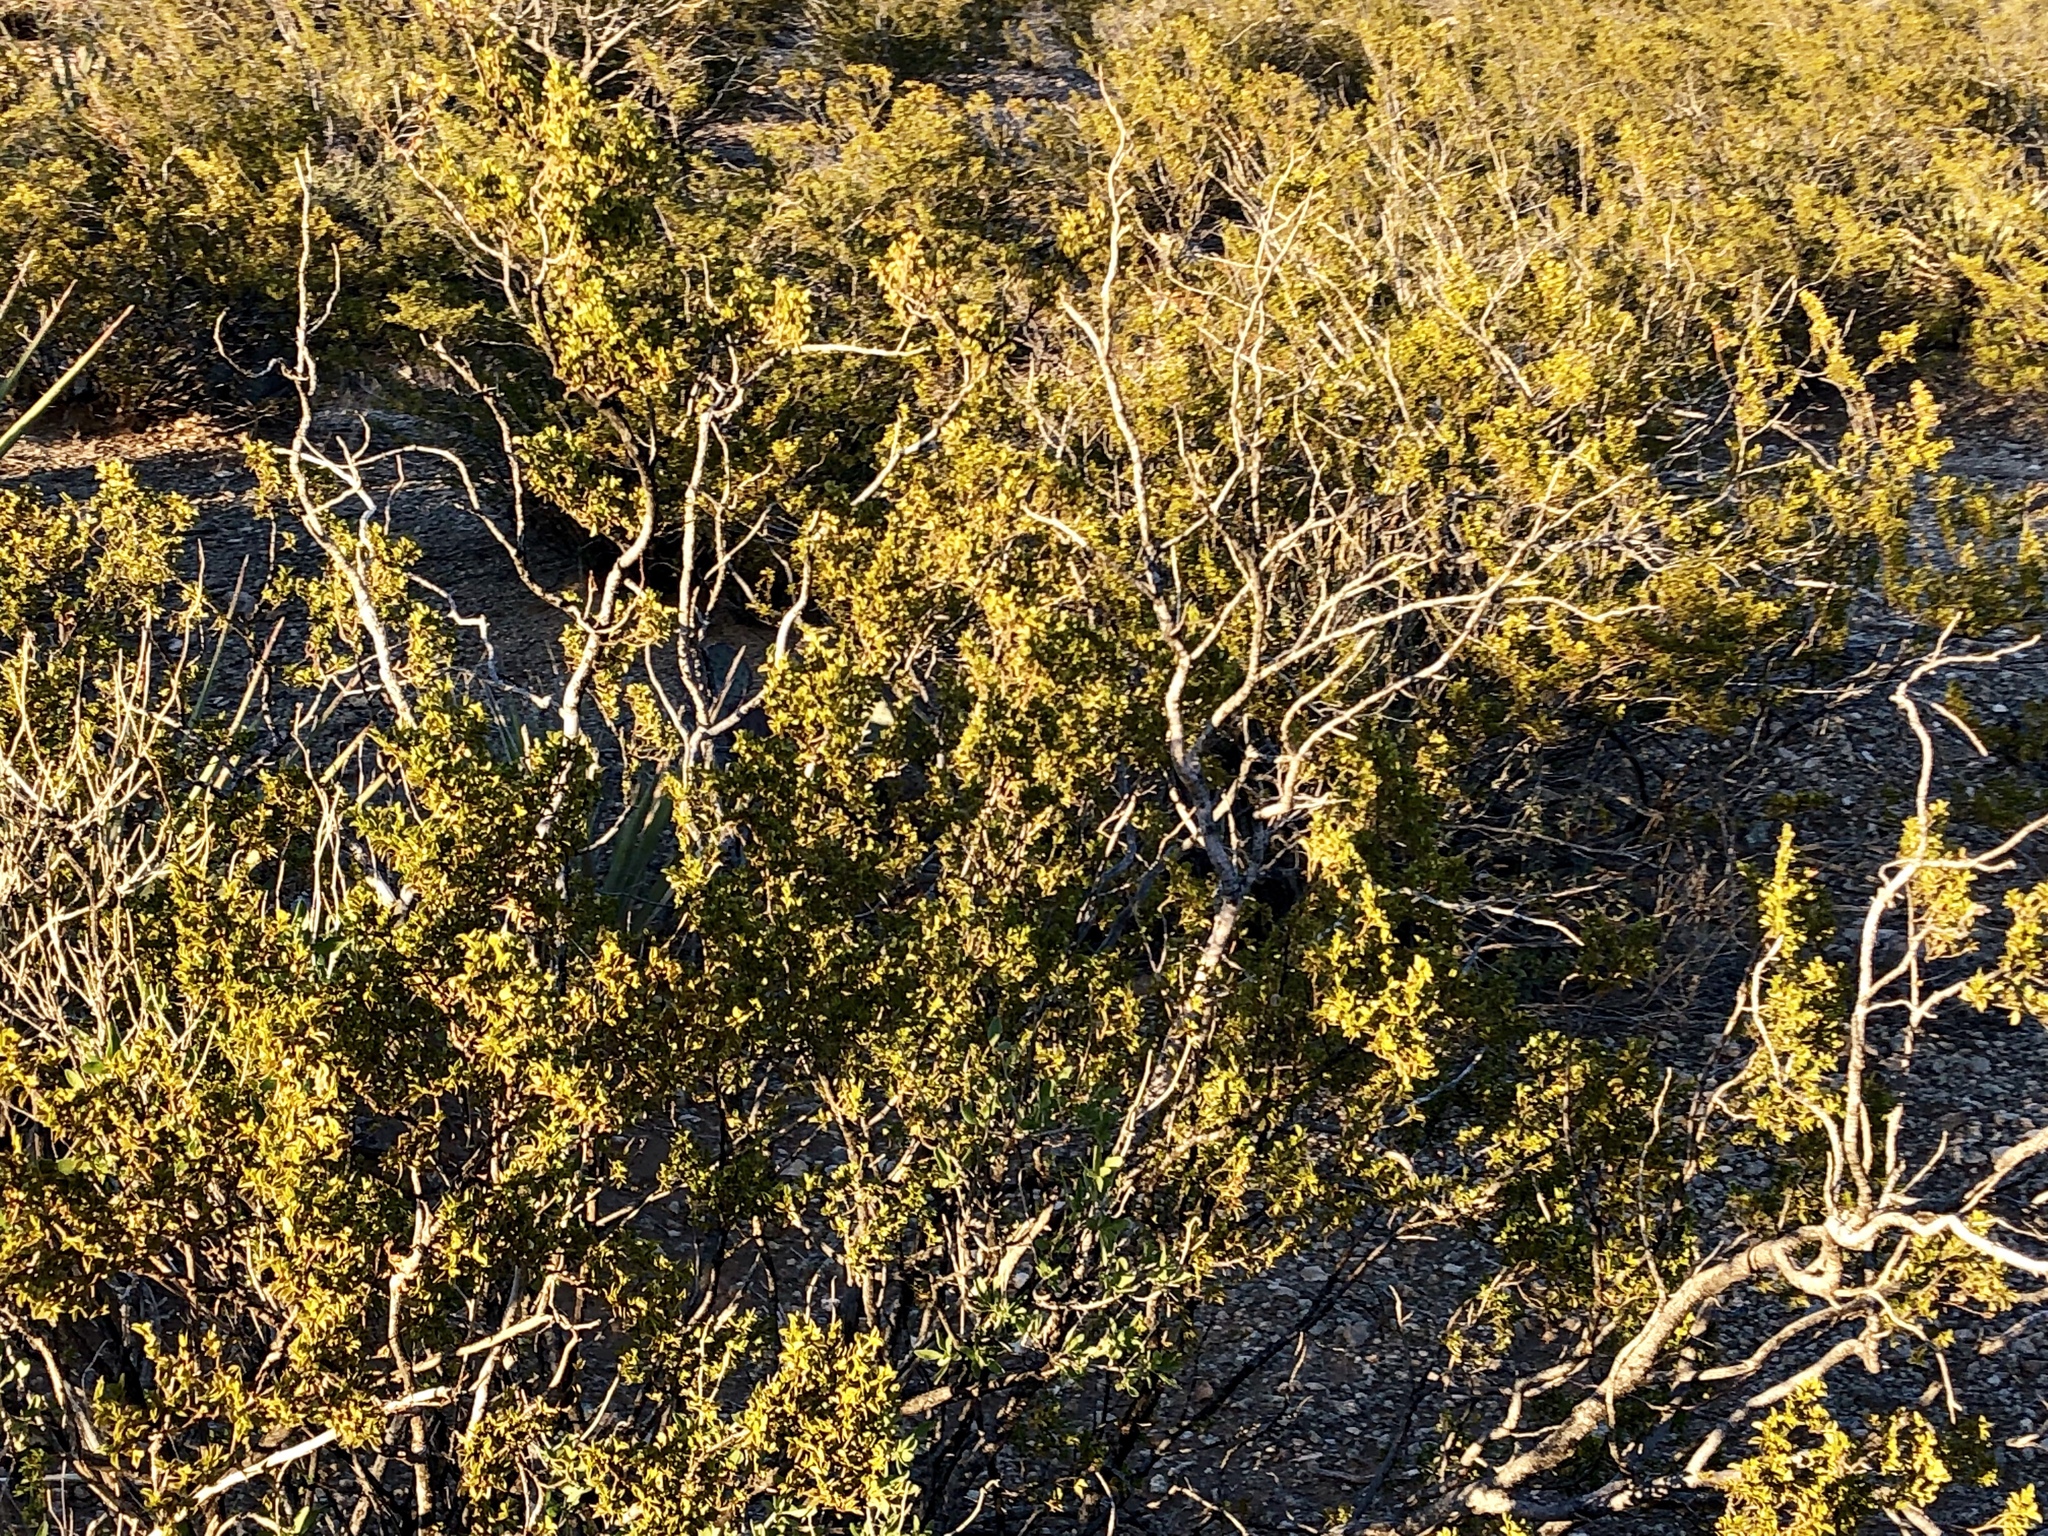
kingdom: Plantae
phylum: Tracheophyta
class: Magnoliopsida
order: Zygophyllales
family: Zygophyllaceae
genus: Larrea
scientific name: Larrea tridentata
